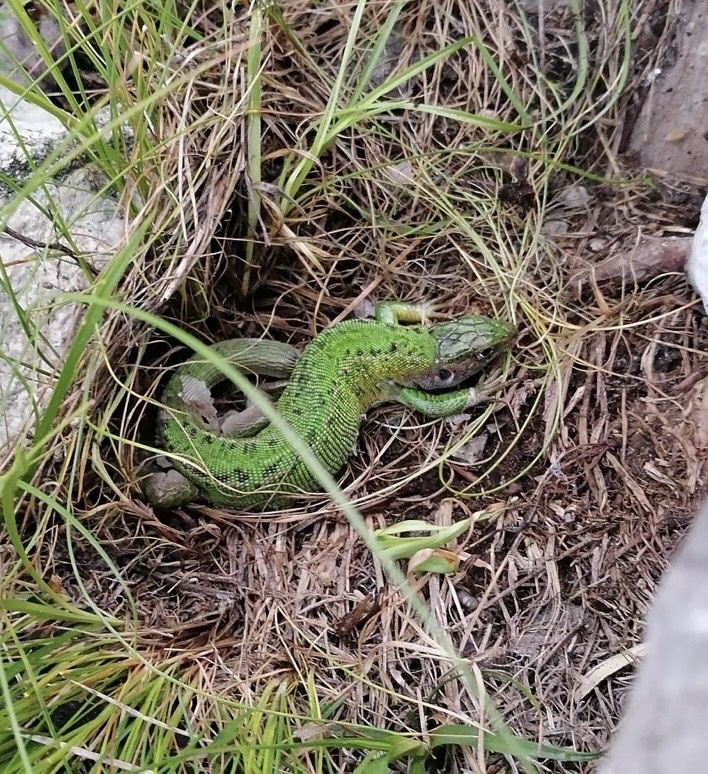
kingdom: Animalia
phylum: Chordata
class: Squamata
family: Lacertidae
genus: Lacerta
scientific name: Lacerta bilineata
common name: Western green lizard
